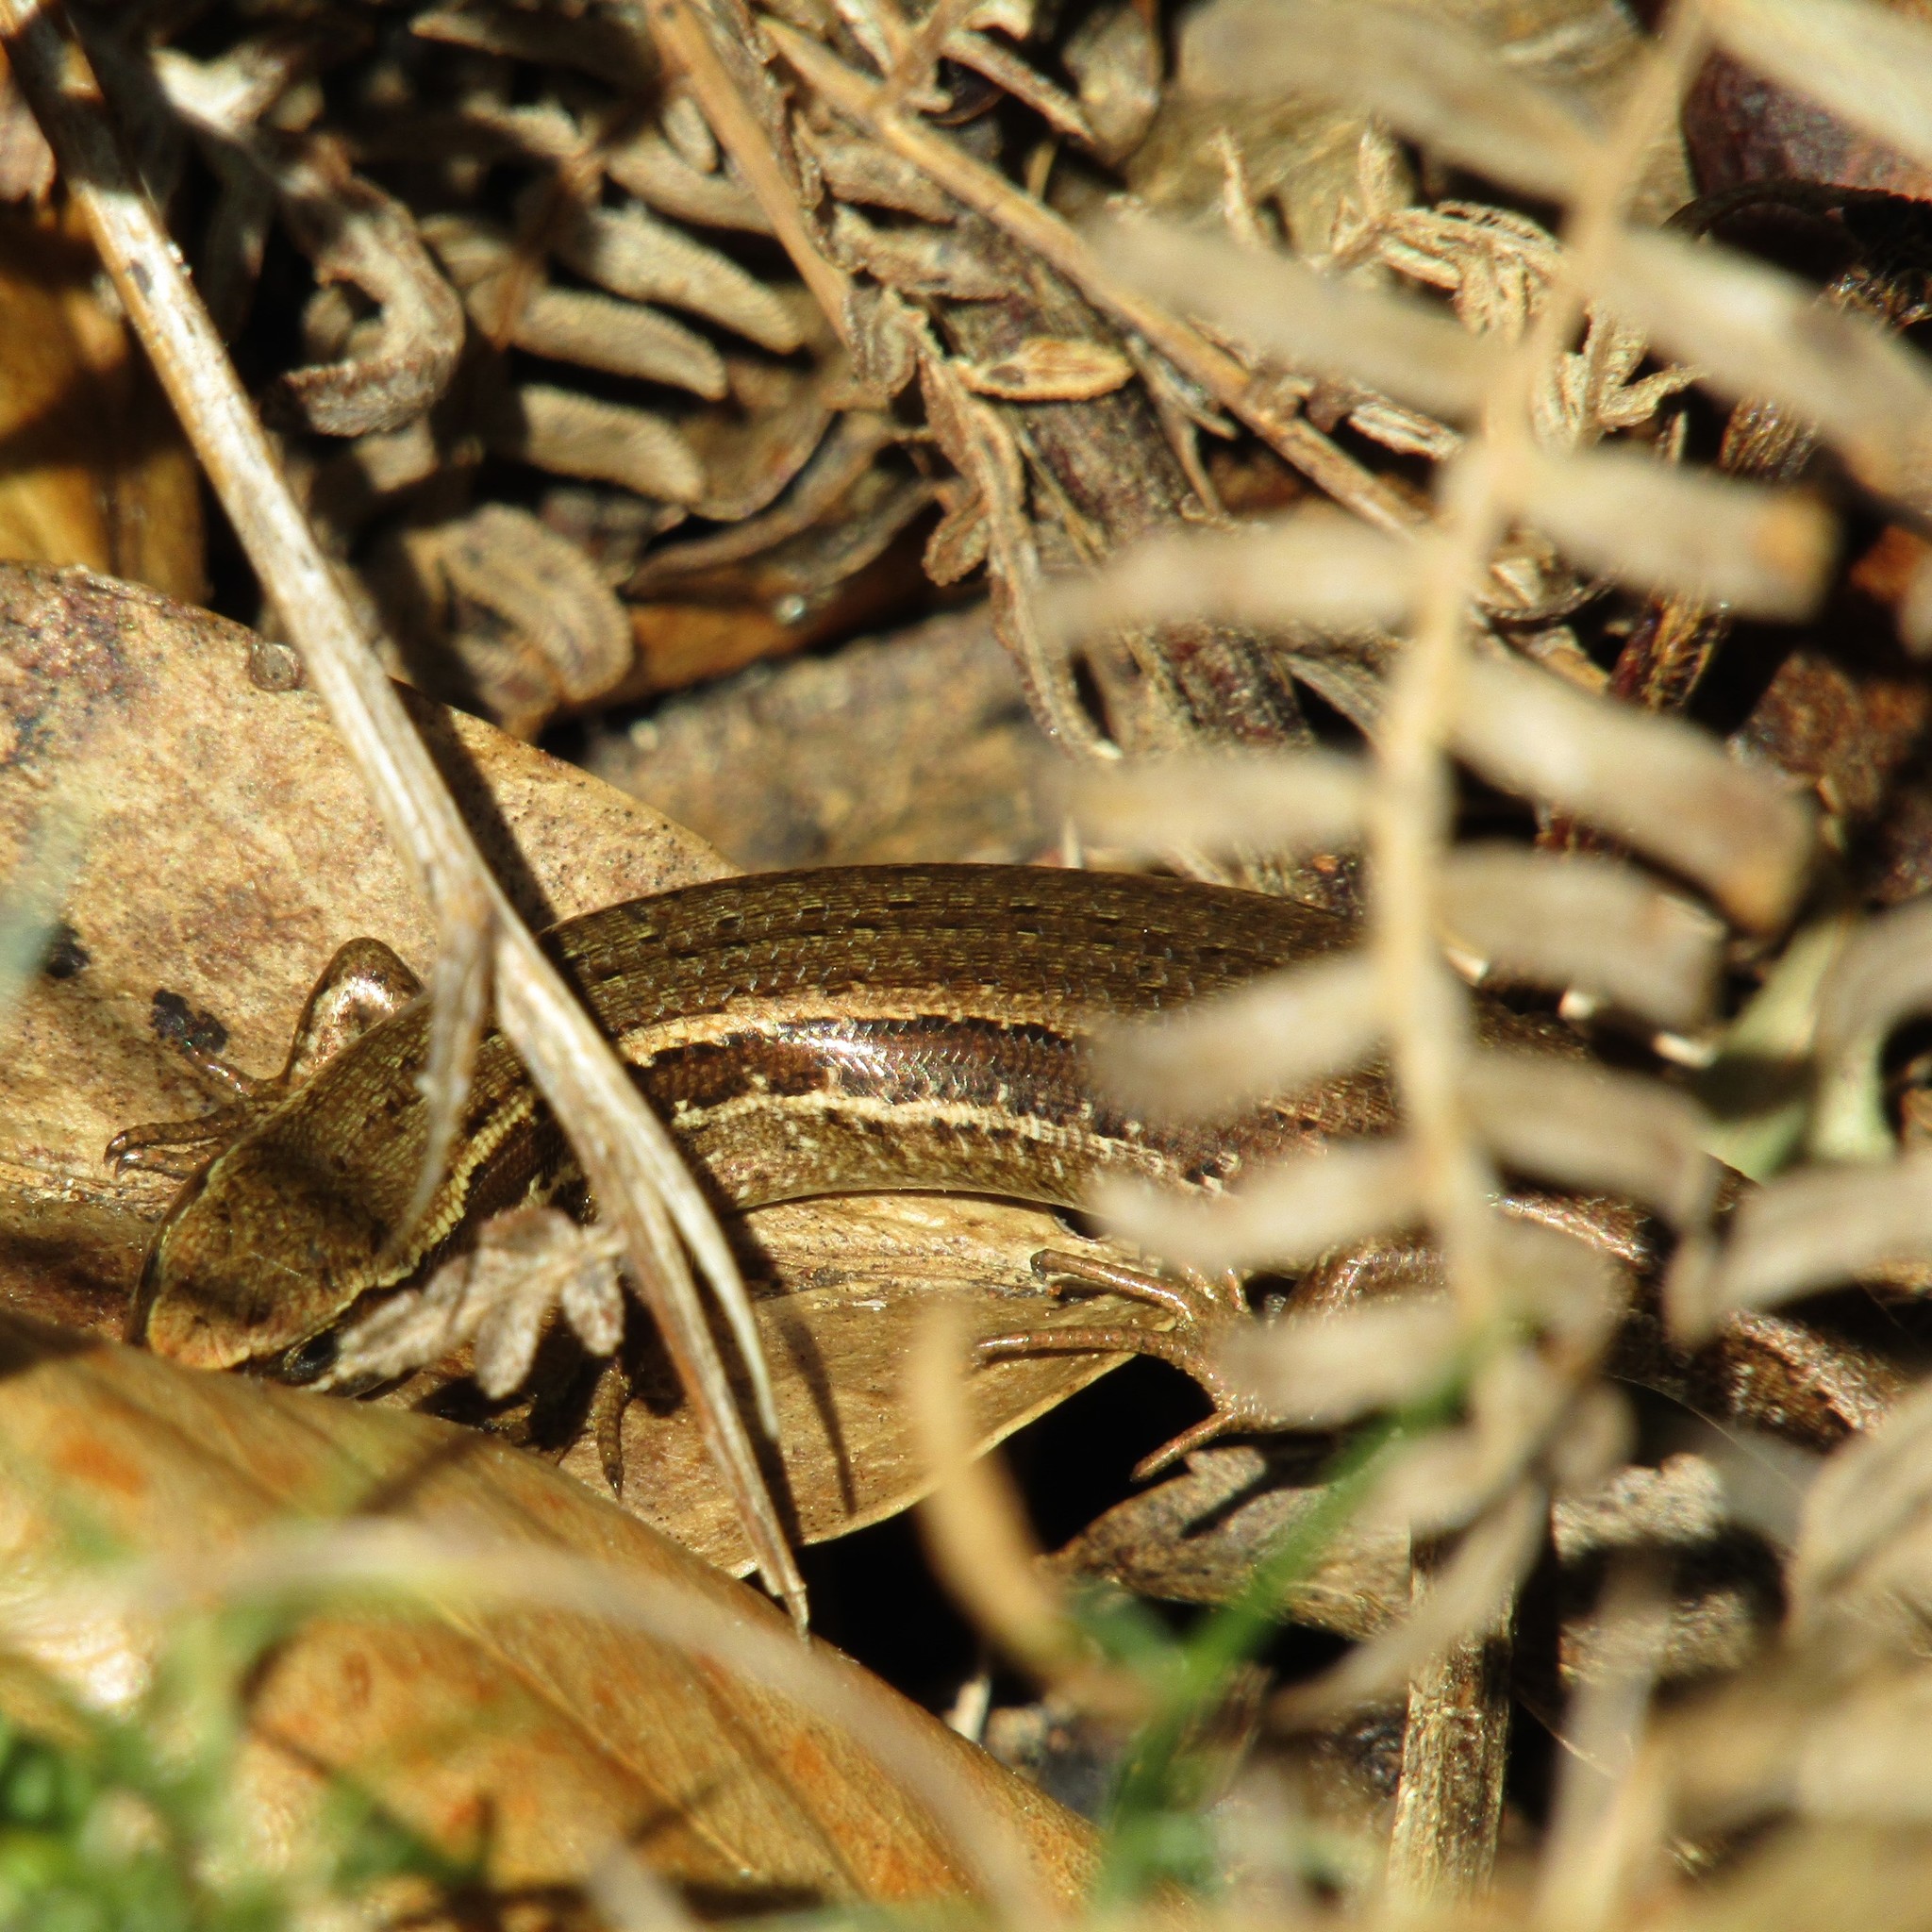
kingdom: Animalia
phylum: Chordata
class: Squamata
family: Scincidae
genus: Oligosoma
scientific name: Oligosoma polychroma
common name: Common new zealand skink
